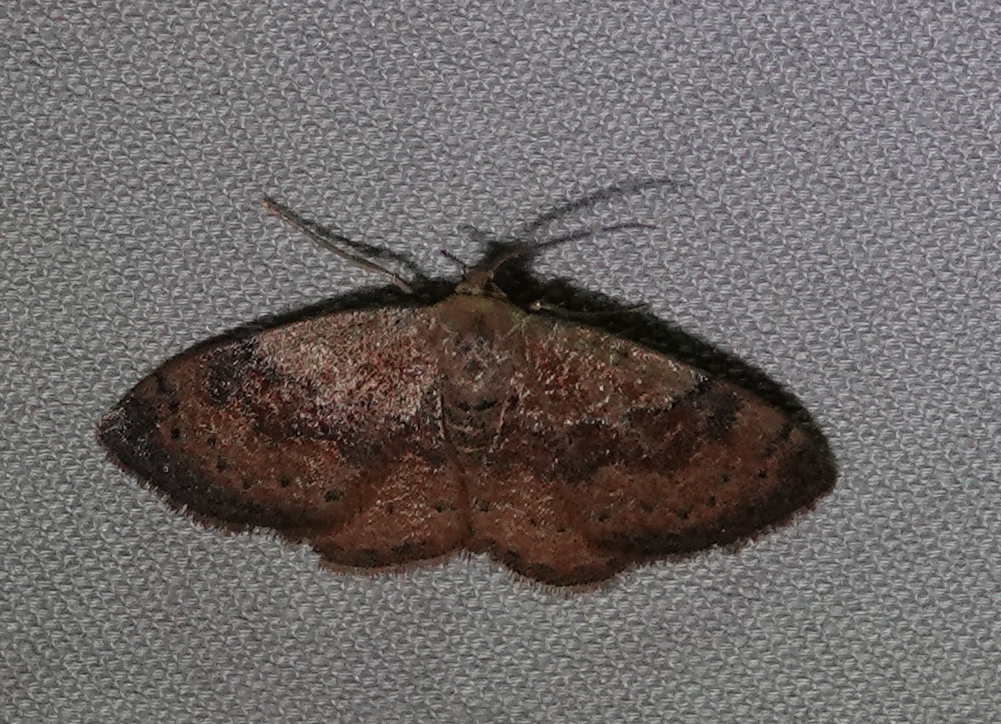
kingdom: Animalia
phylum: Arthropoda
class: Insecta
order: Lepidoptera
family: Geometridae
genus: Leptostales
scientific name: Leptostales ferruminaria
